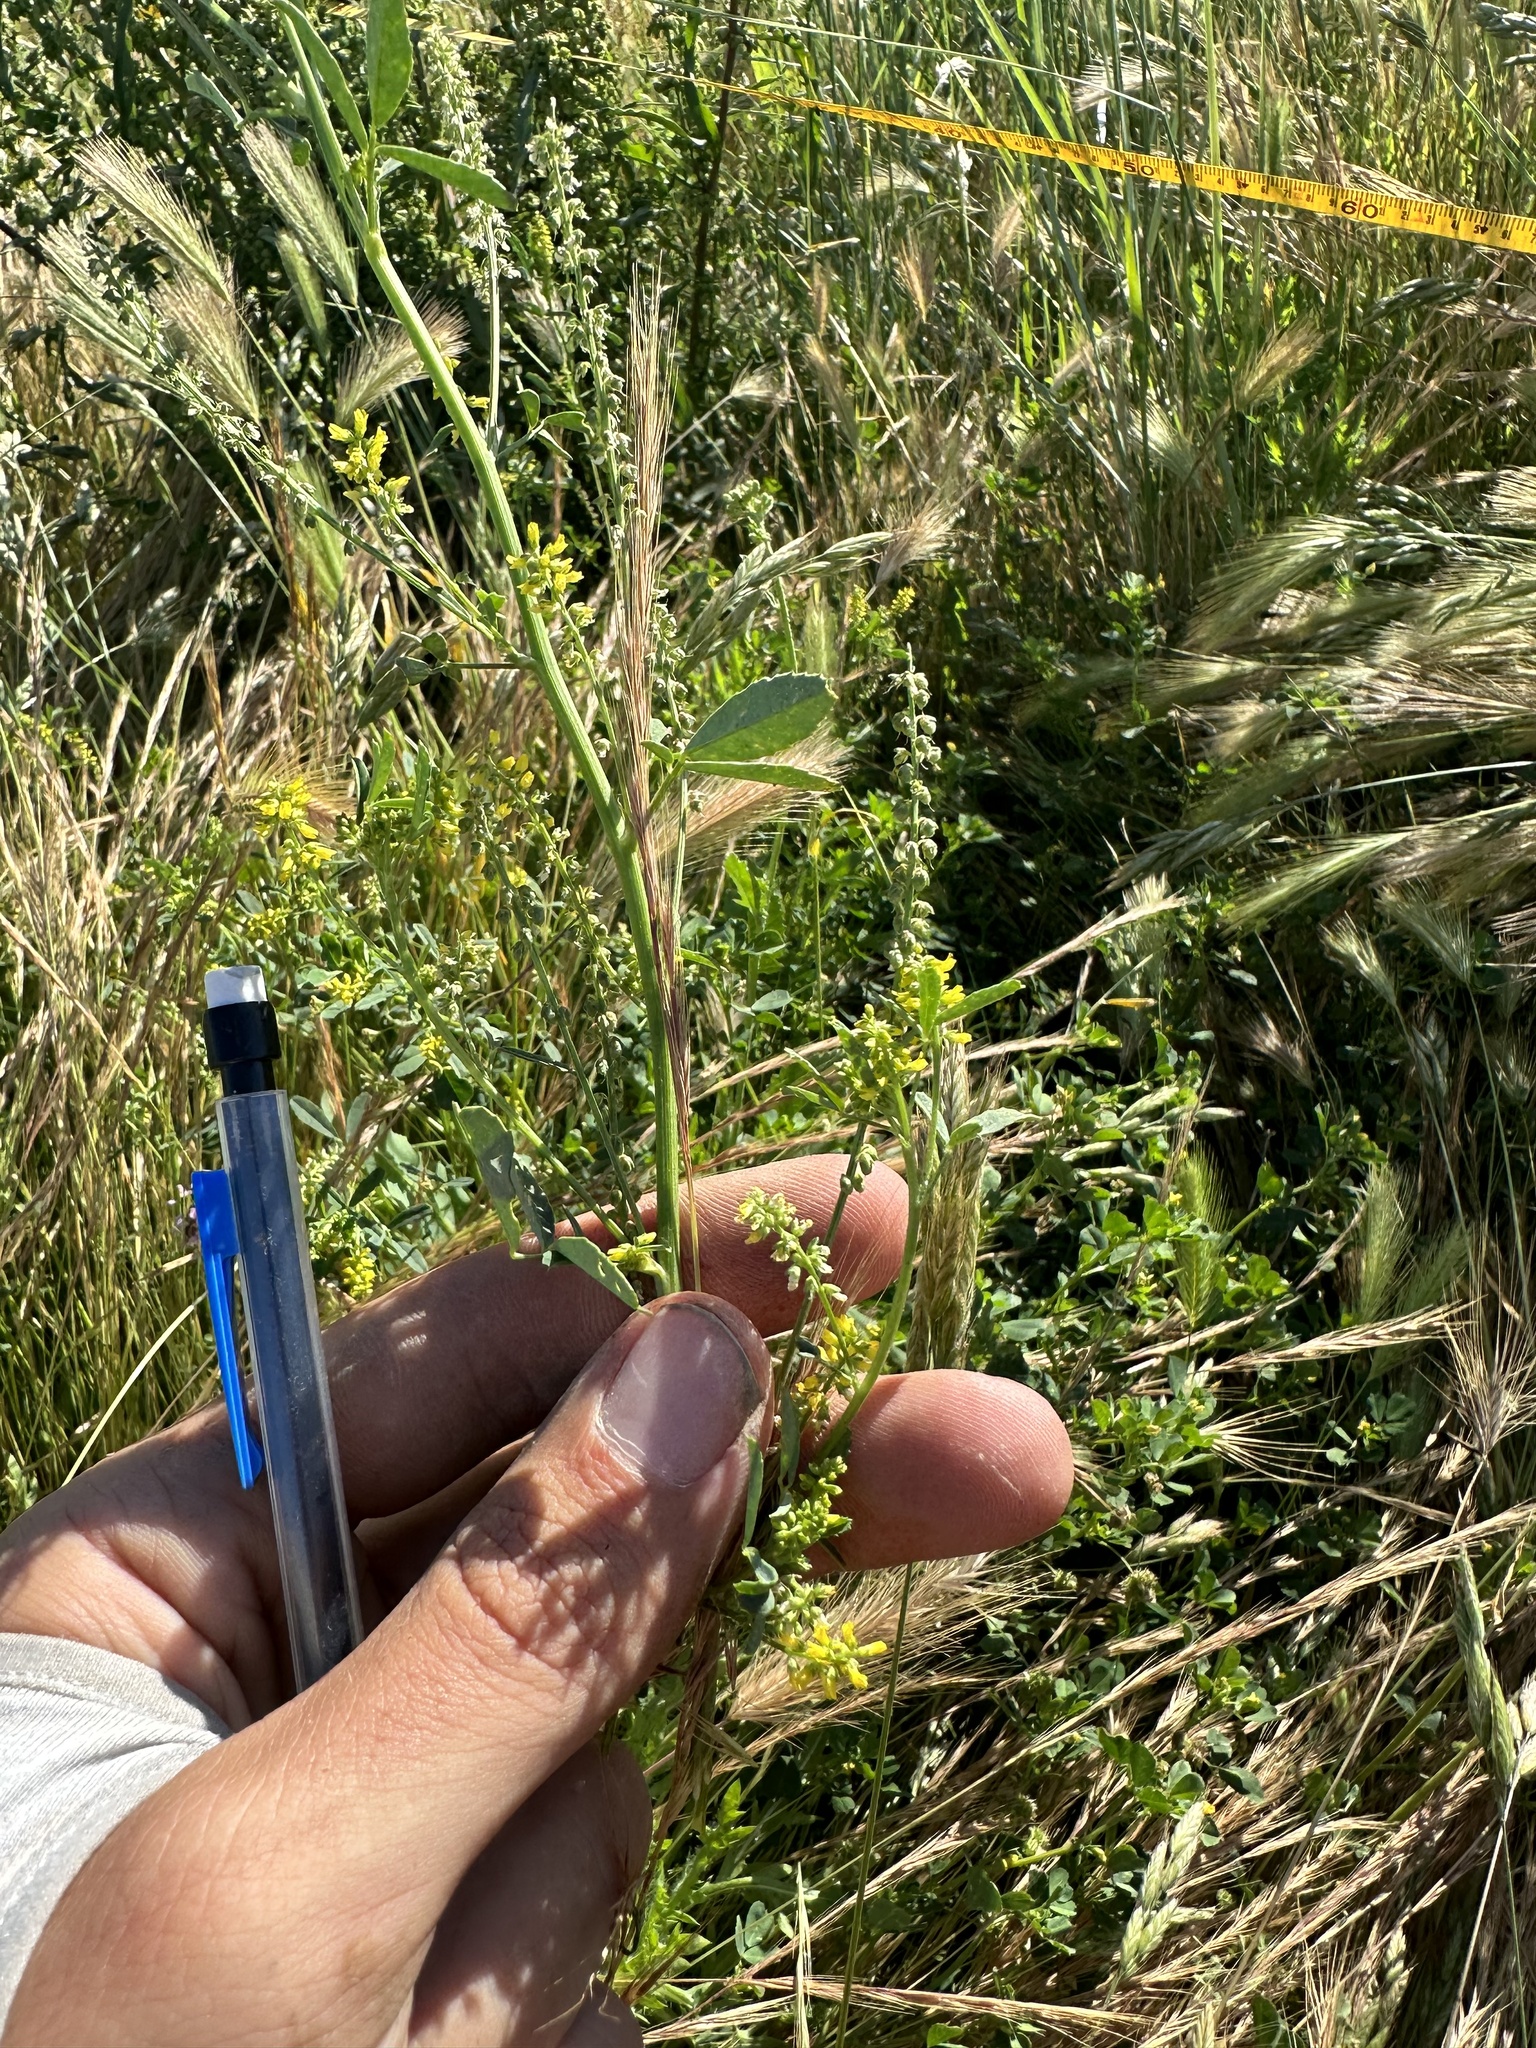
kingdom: Plantae
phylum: Tracheophyta
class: Magnoliopsida
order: Fabales
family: Fabaceae
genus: Melilotus
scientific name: Melilotus indicus
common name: Small melilot
